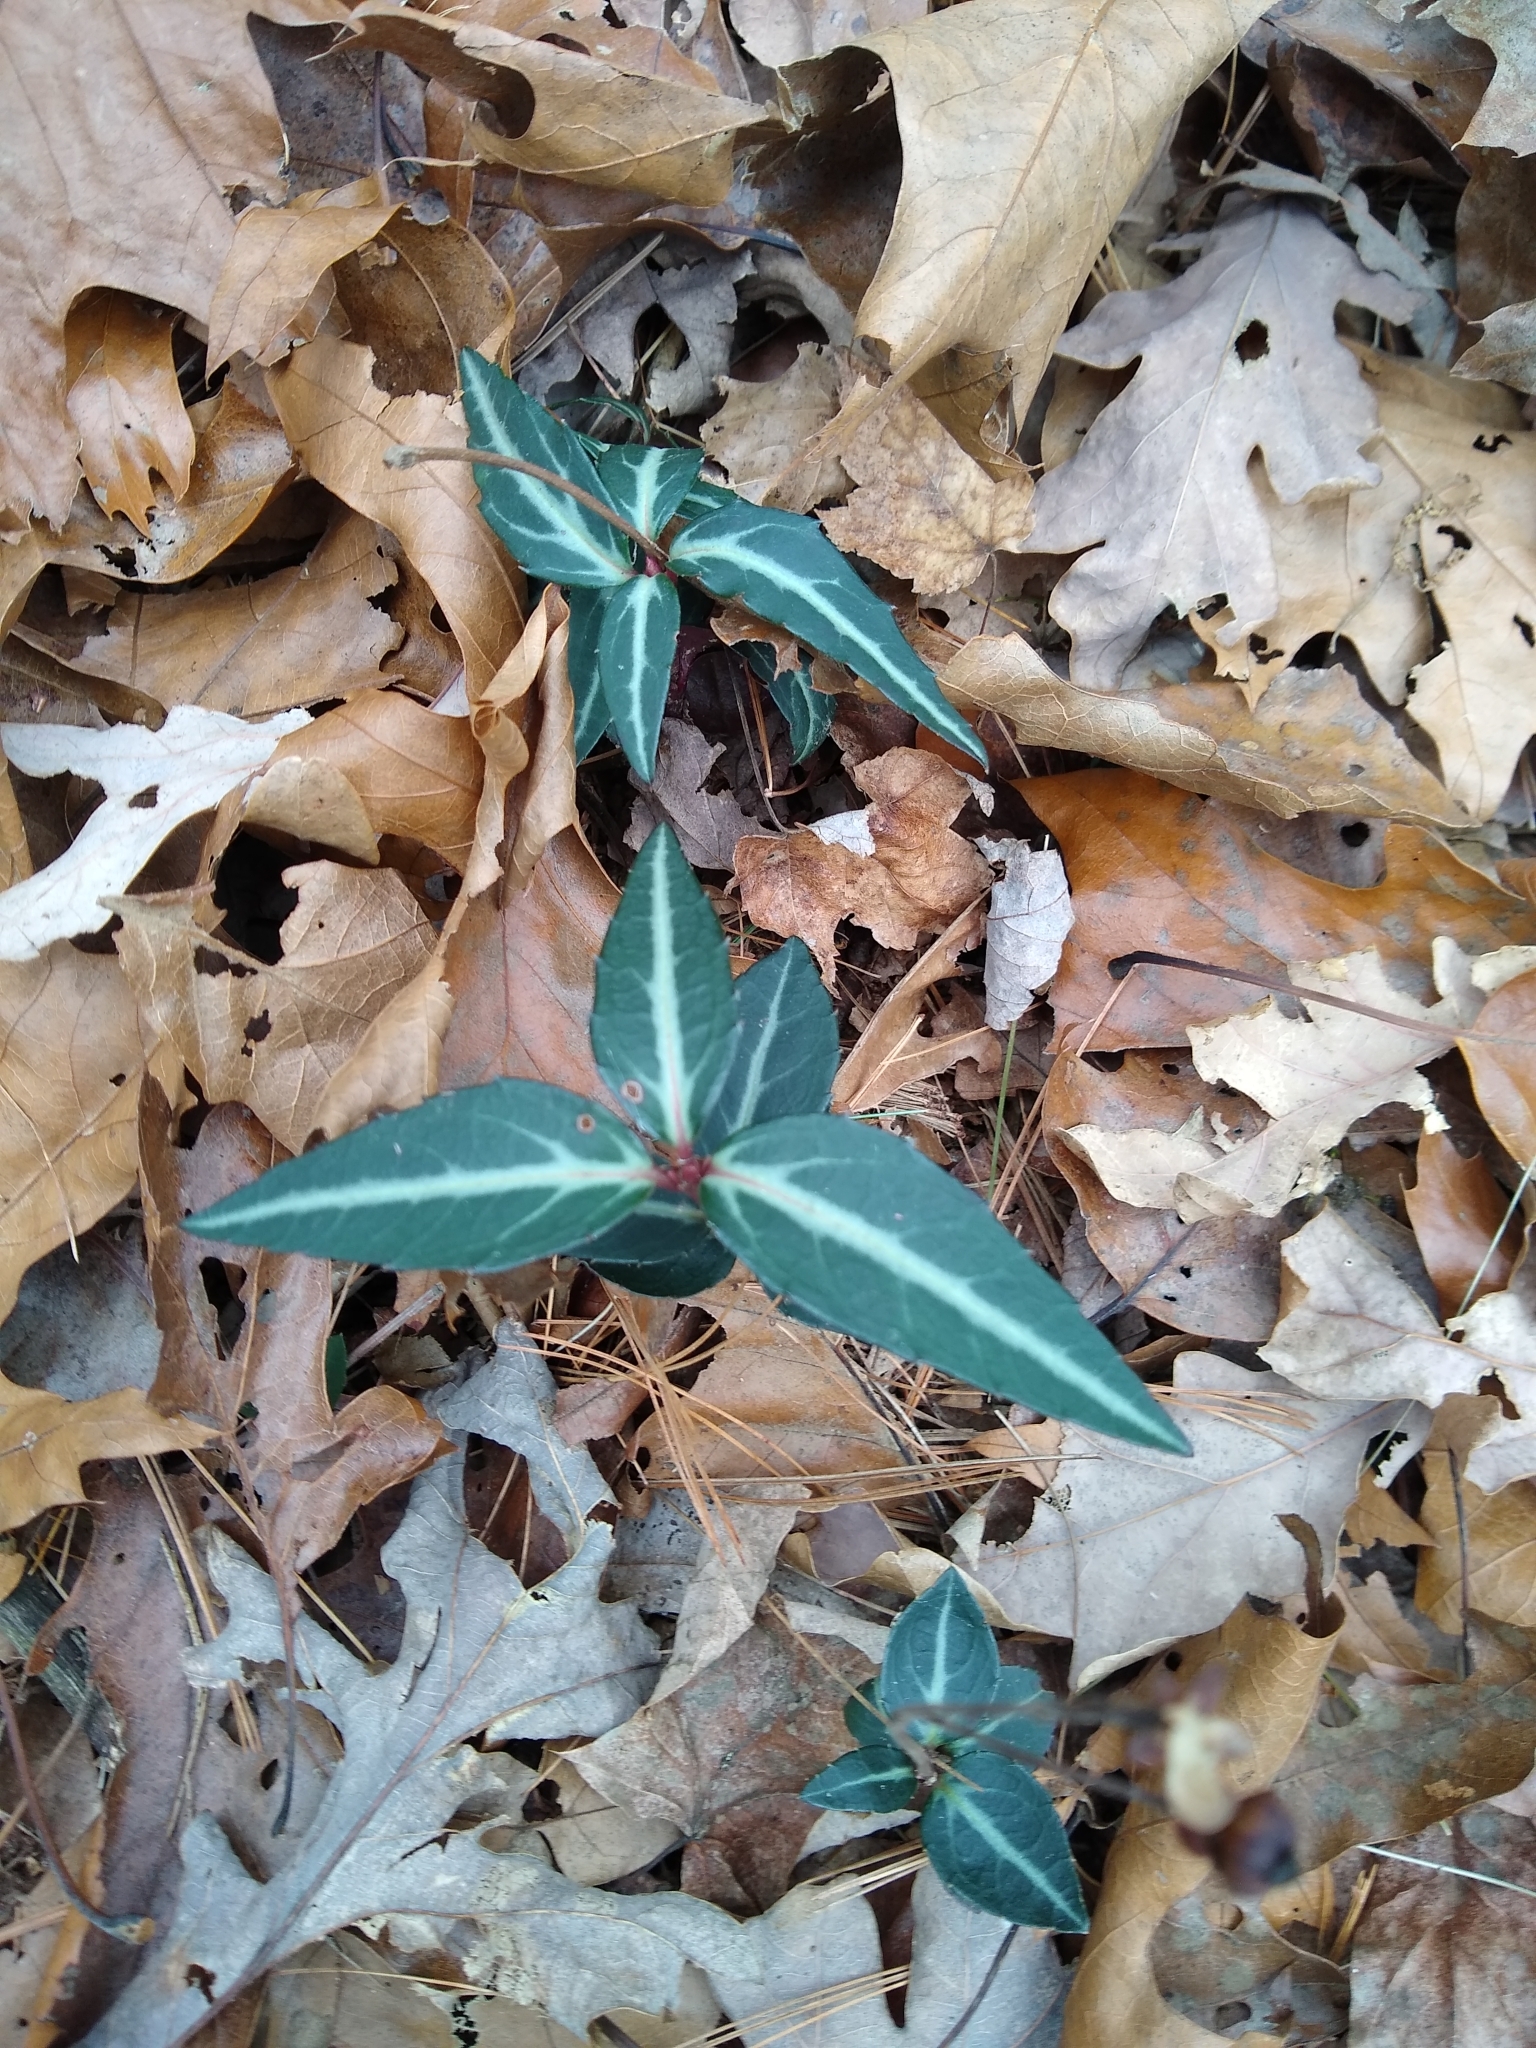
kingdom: Plantae
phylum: Tracheophyta
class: Magnoliopsida
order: Ericales
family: Ericaceae
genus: Chimaphila
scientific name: Chimaphila maculata
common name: Spotted pipsissewa
